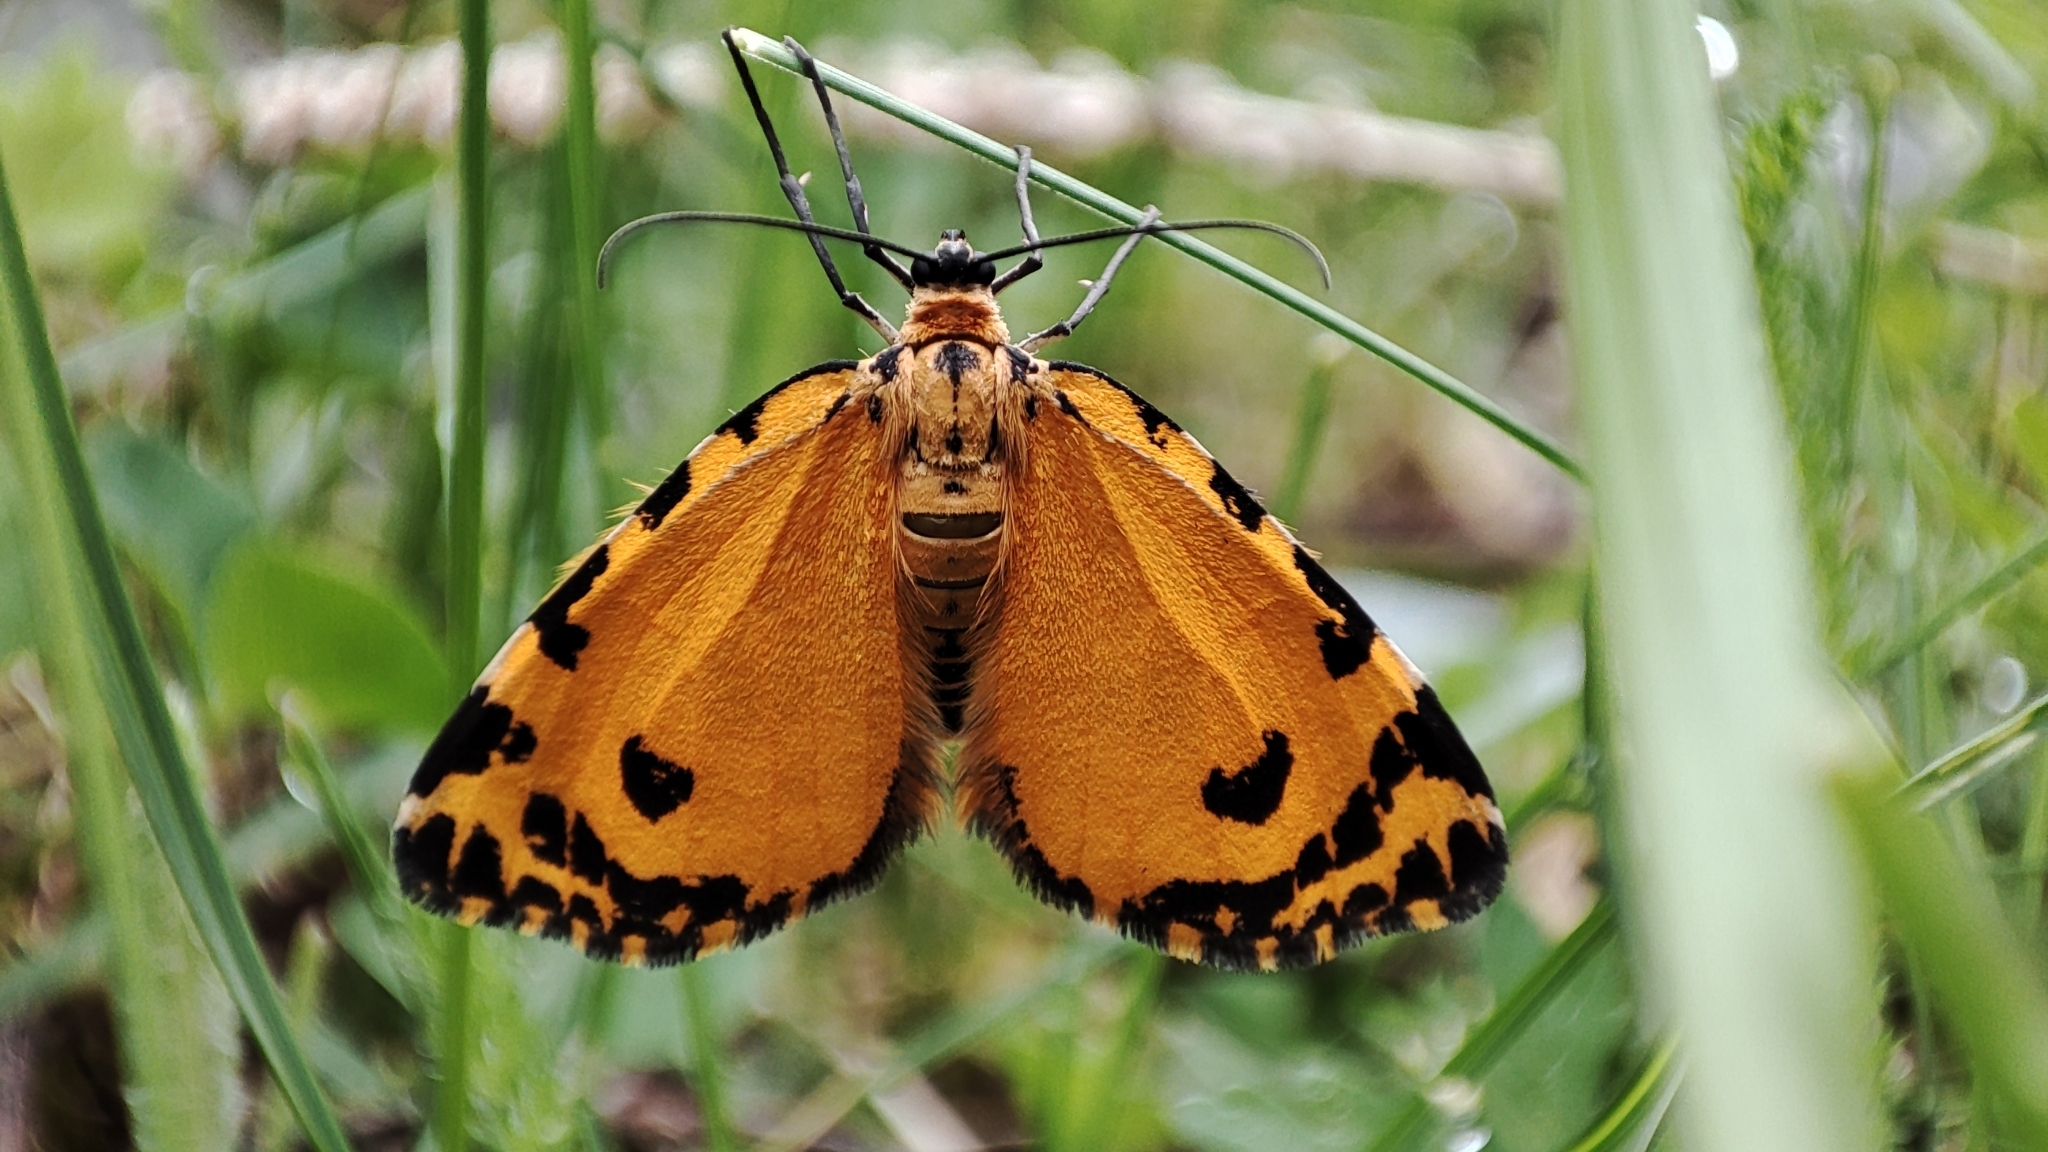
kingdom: Animalia
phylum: Arthropoda
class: Insecta
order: Lepidoptera
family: Geometridae
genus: Stamnodes
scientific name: Stamnodes danilovi
